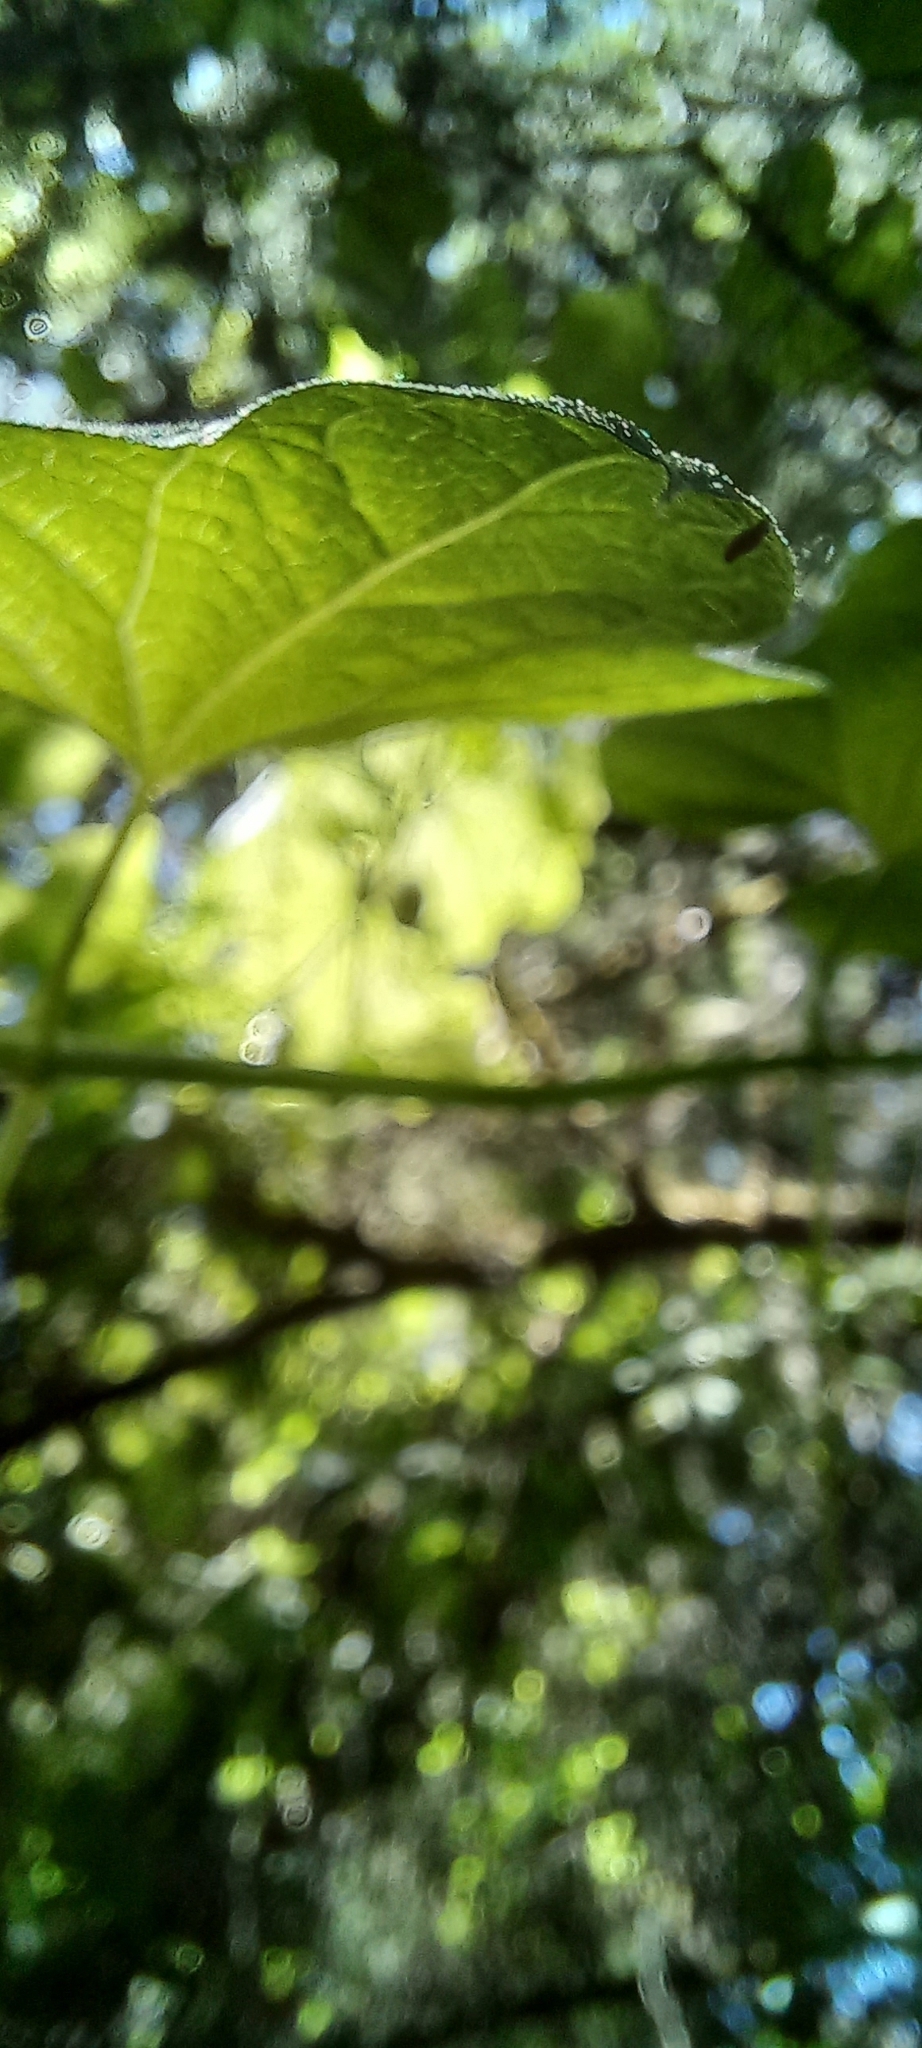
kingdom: Plantae
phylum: Tracheophyta
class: Magnoliopsida
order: Cucurbitales
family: Cucurbitaceae
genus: Marah
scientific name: Marah oregana
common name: Coastal manroot
